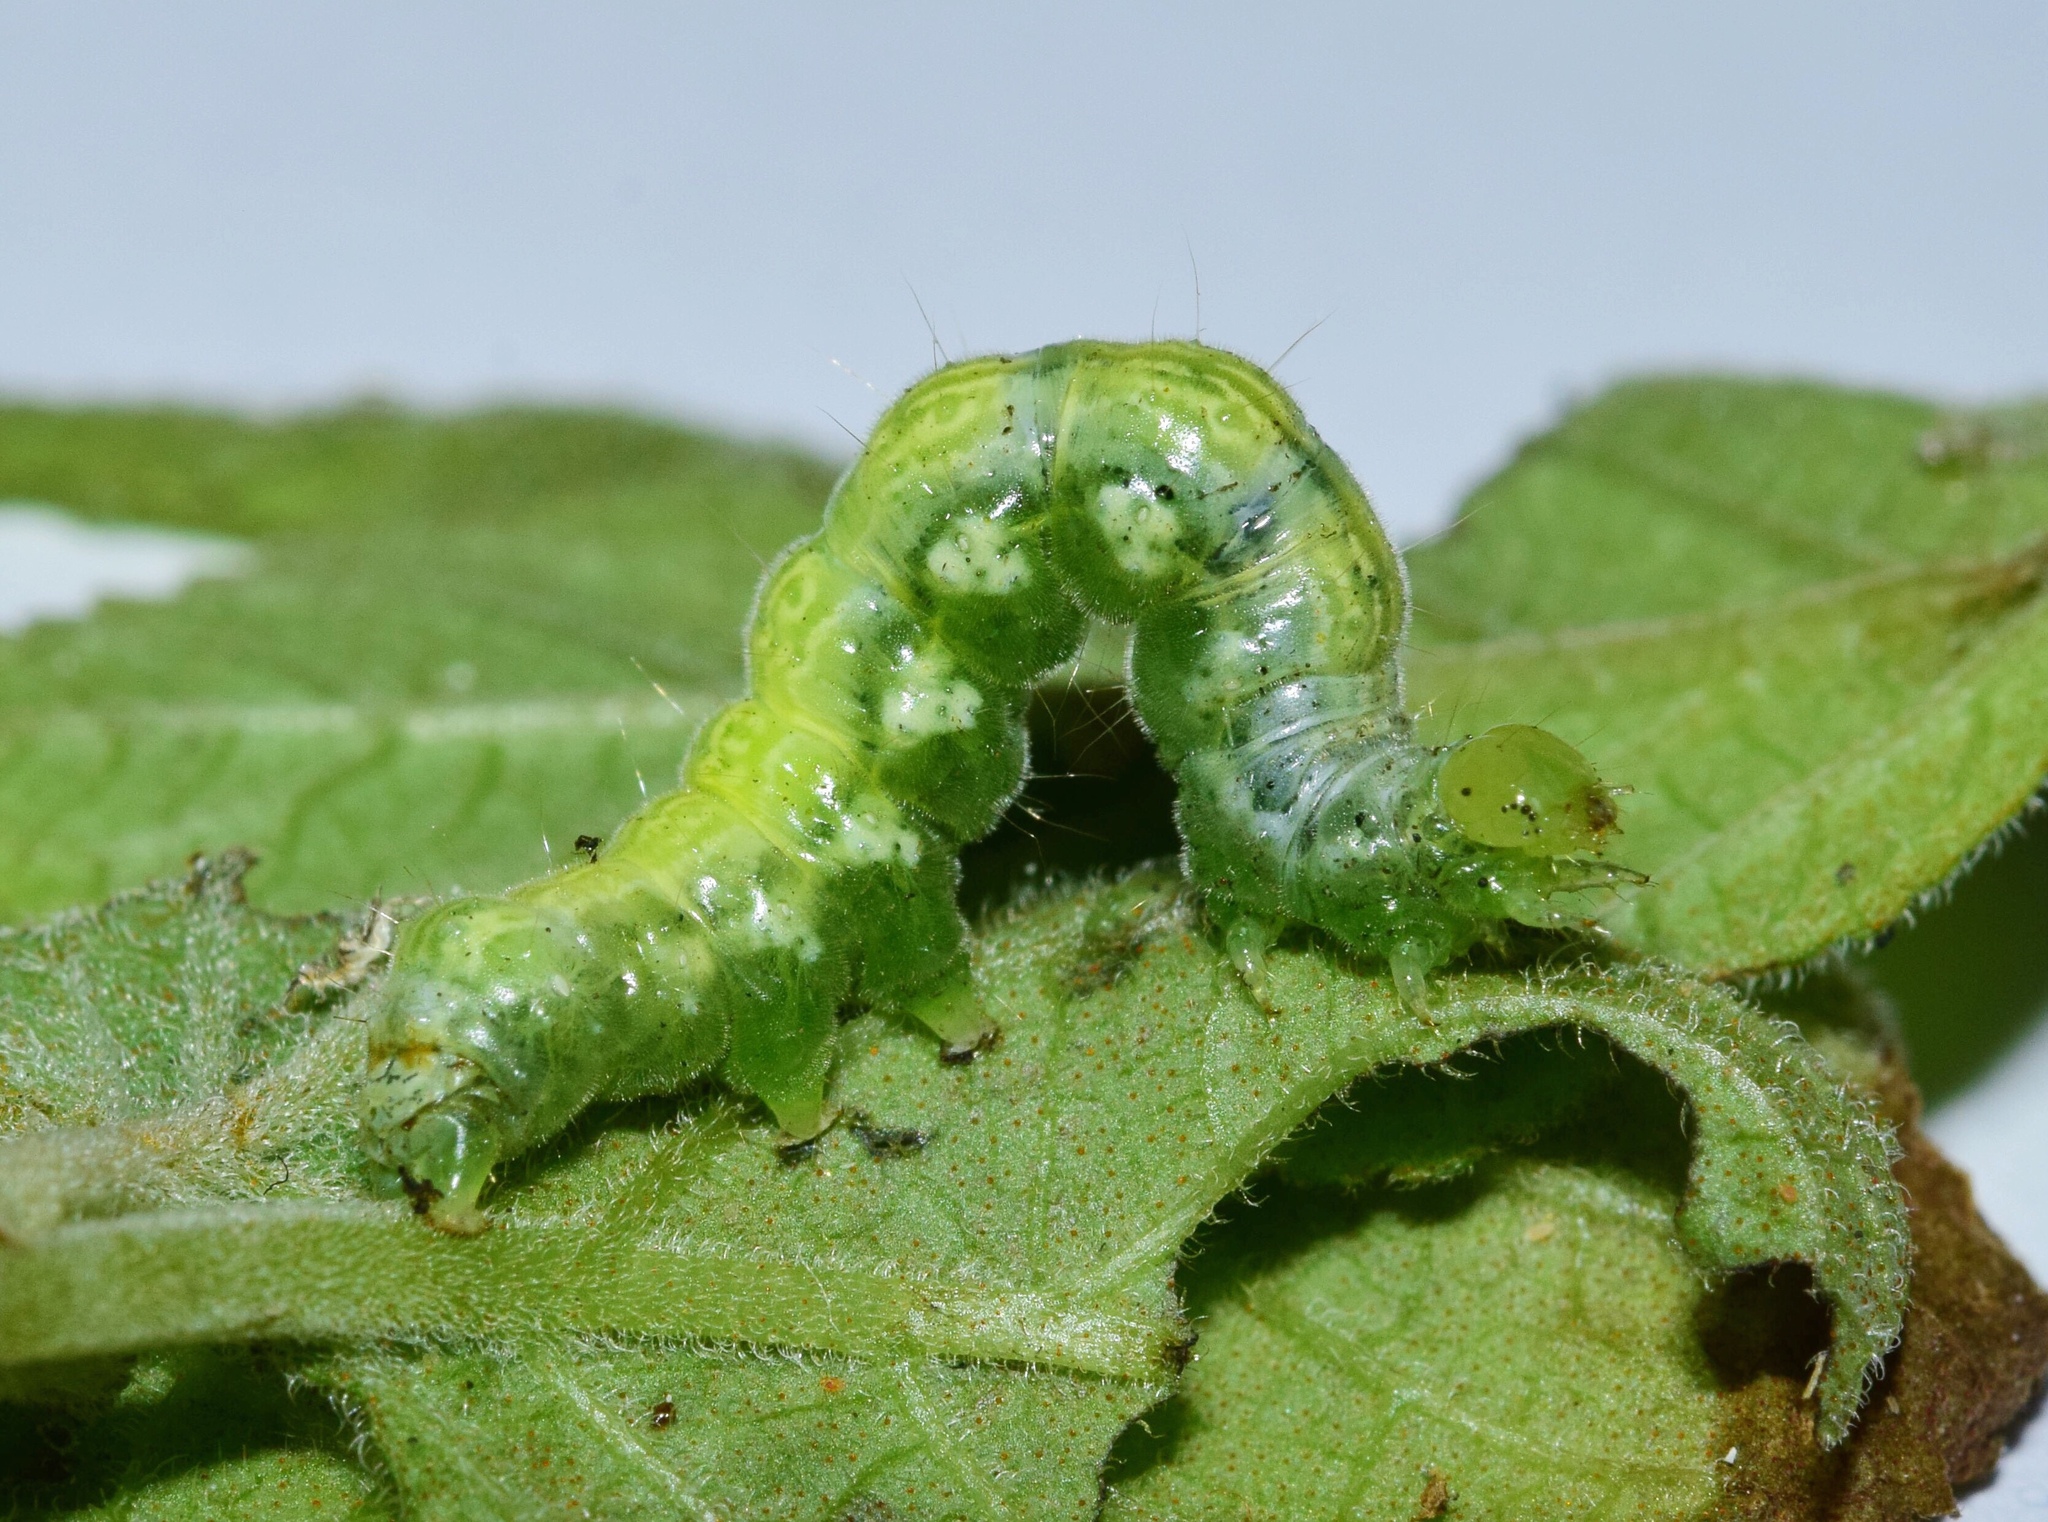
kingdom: Animalia
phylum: Arthropoda
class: Insecta
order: Lepidoptera
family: Noctuidae
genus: Trichoplusia
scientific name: Trichoplusia roseofasciata
